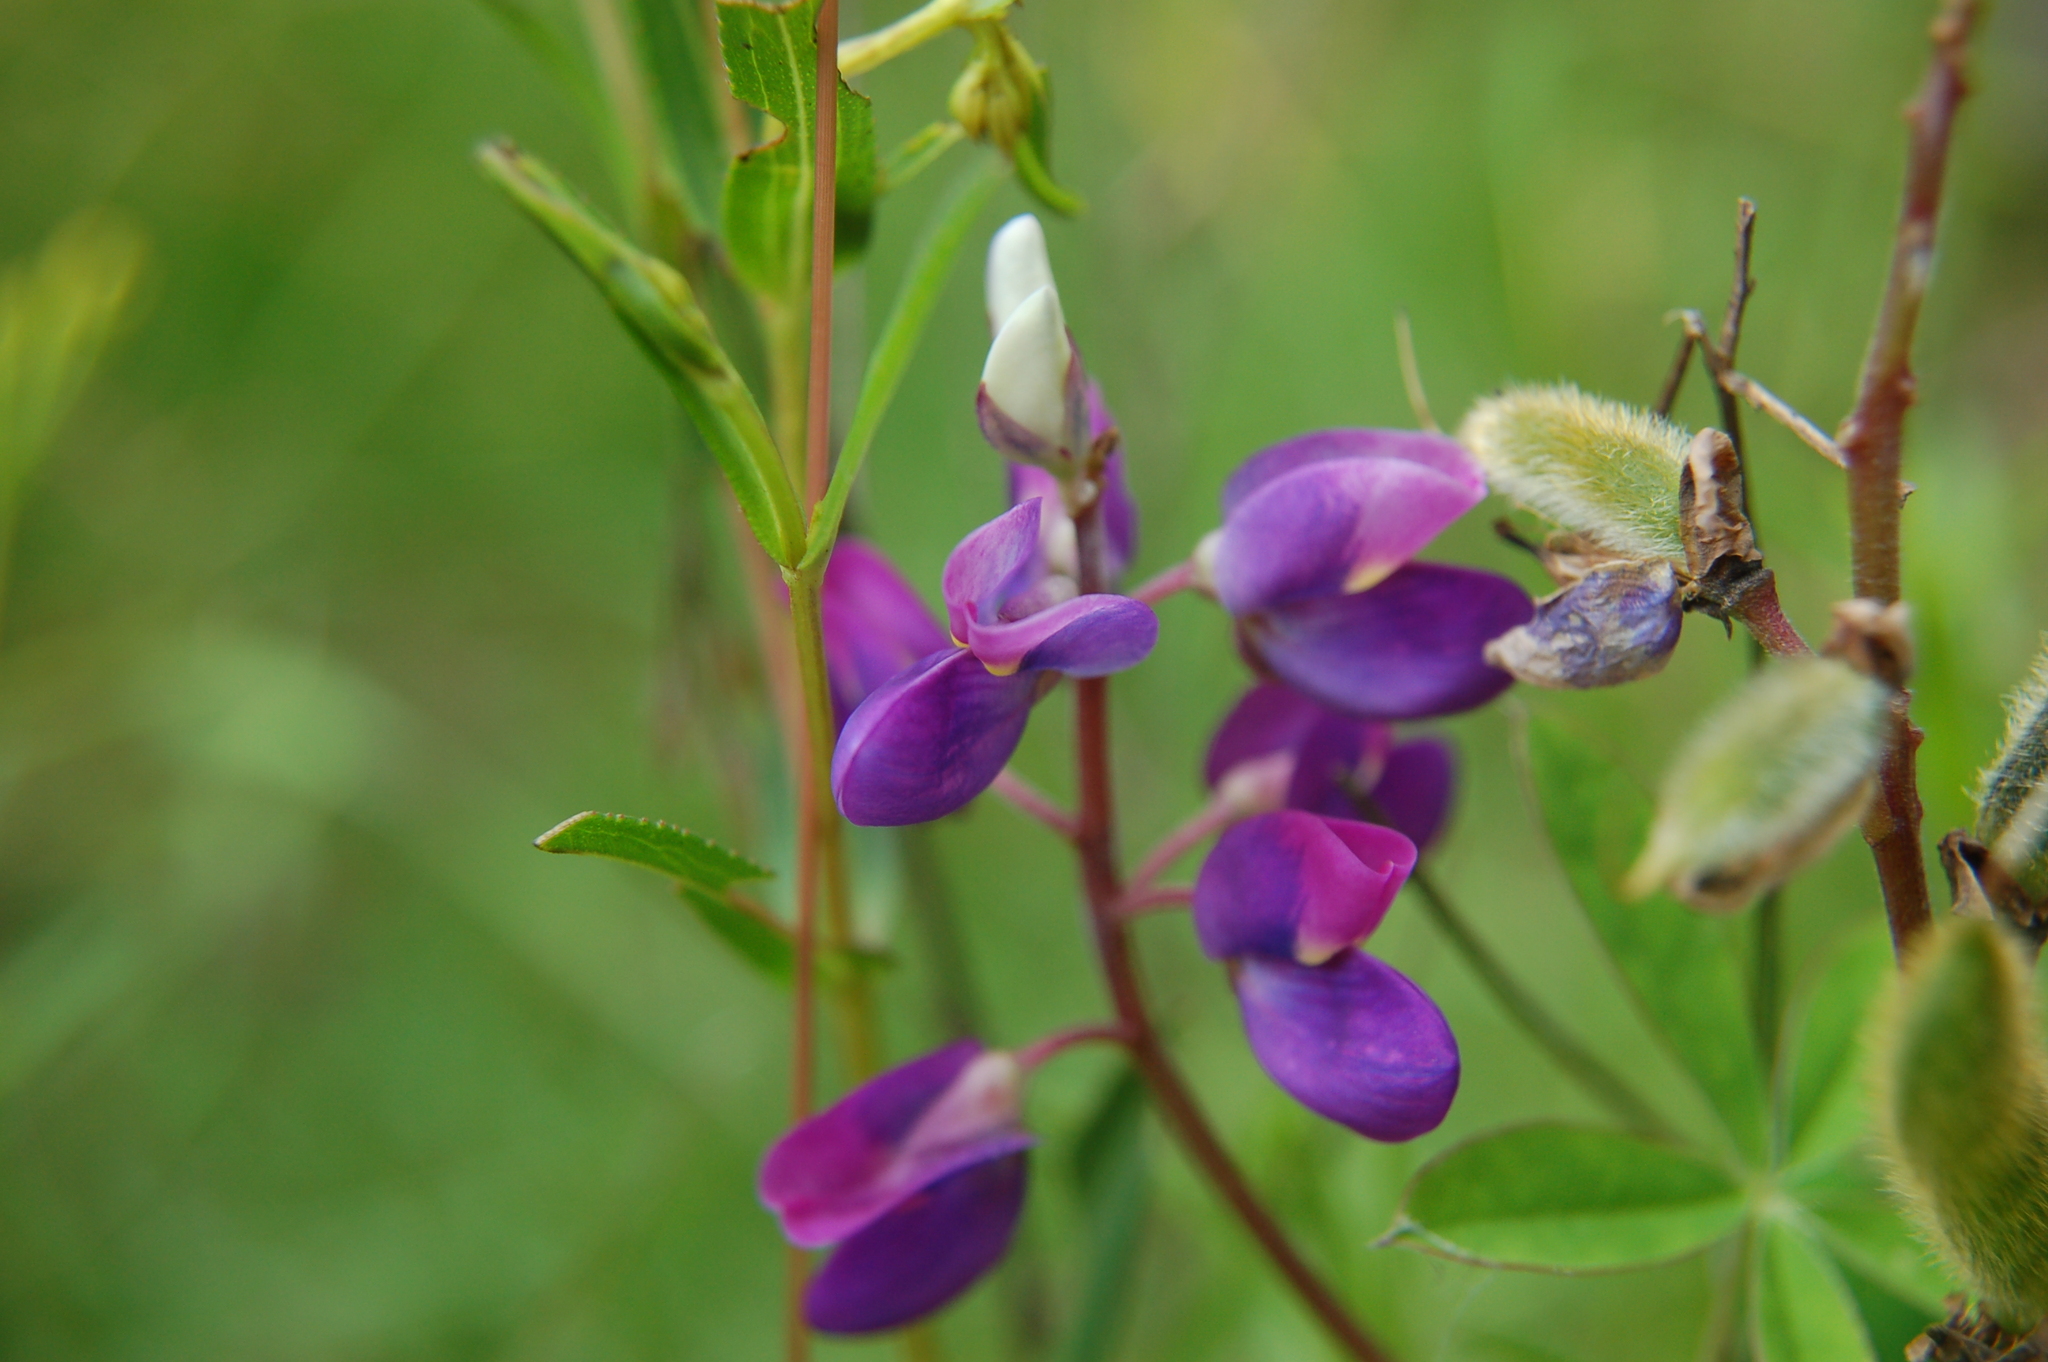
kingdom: Plantae
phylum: Tracheophyta
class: Magnoliopsida
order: Fabales
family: Fabaceae
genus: Lupinus
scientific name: Lupinus montanus
